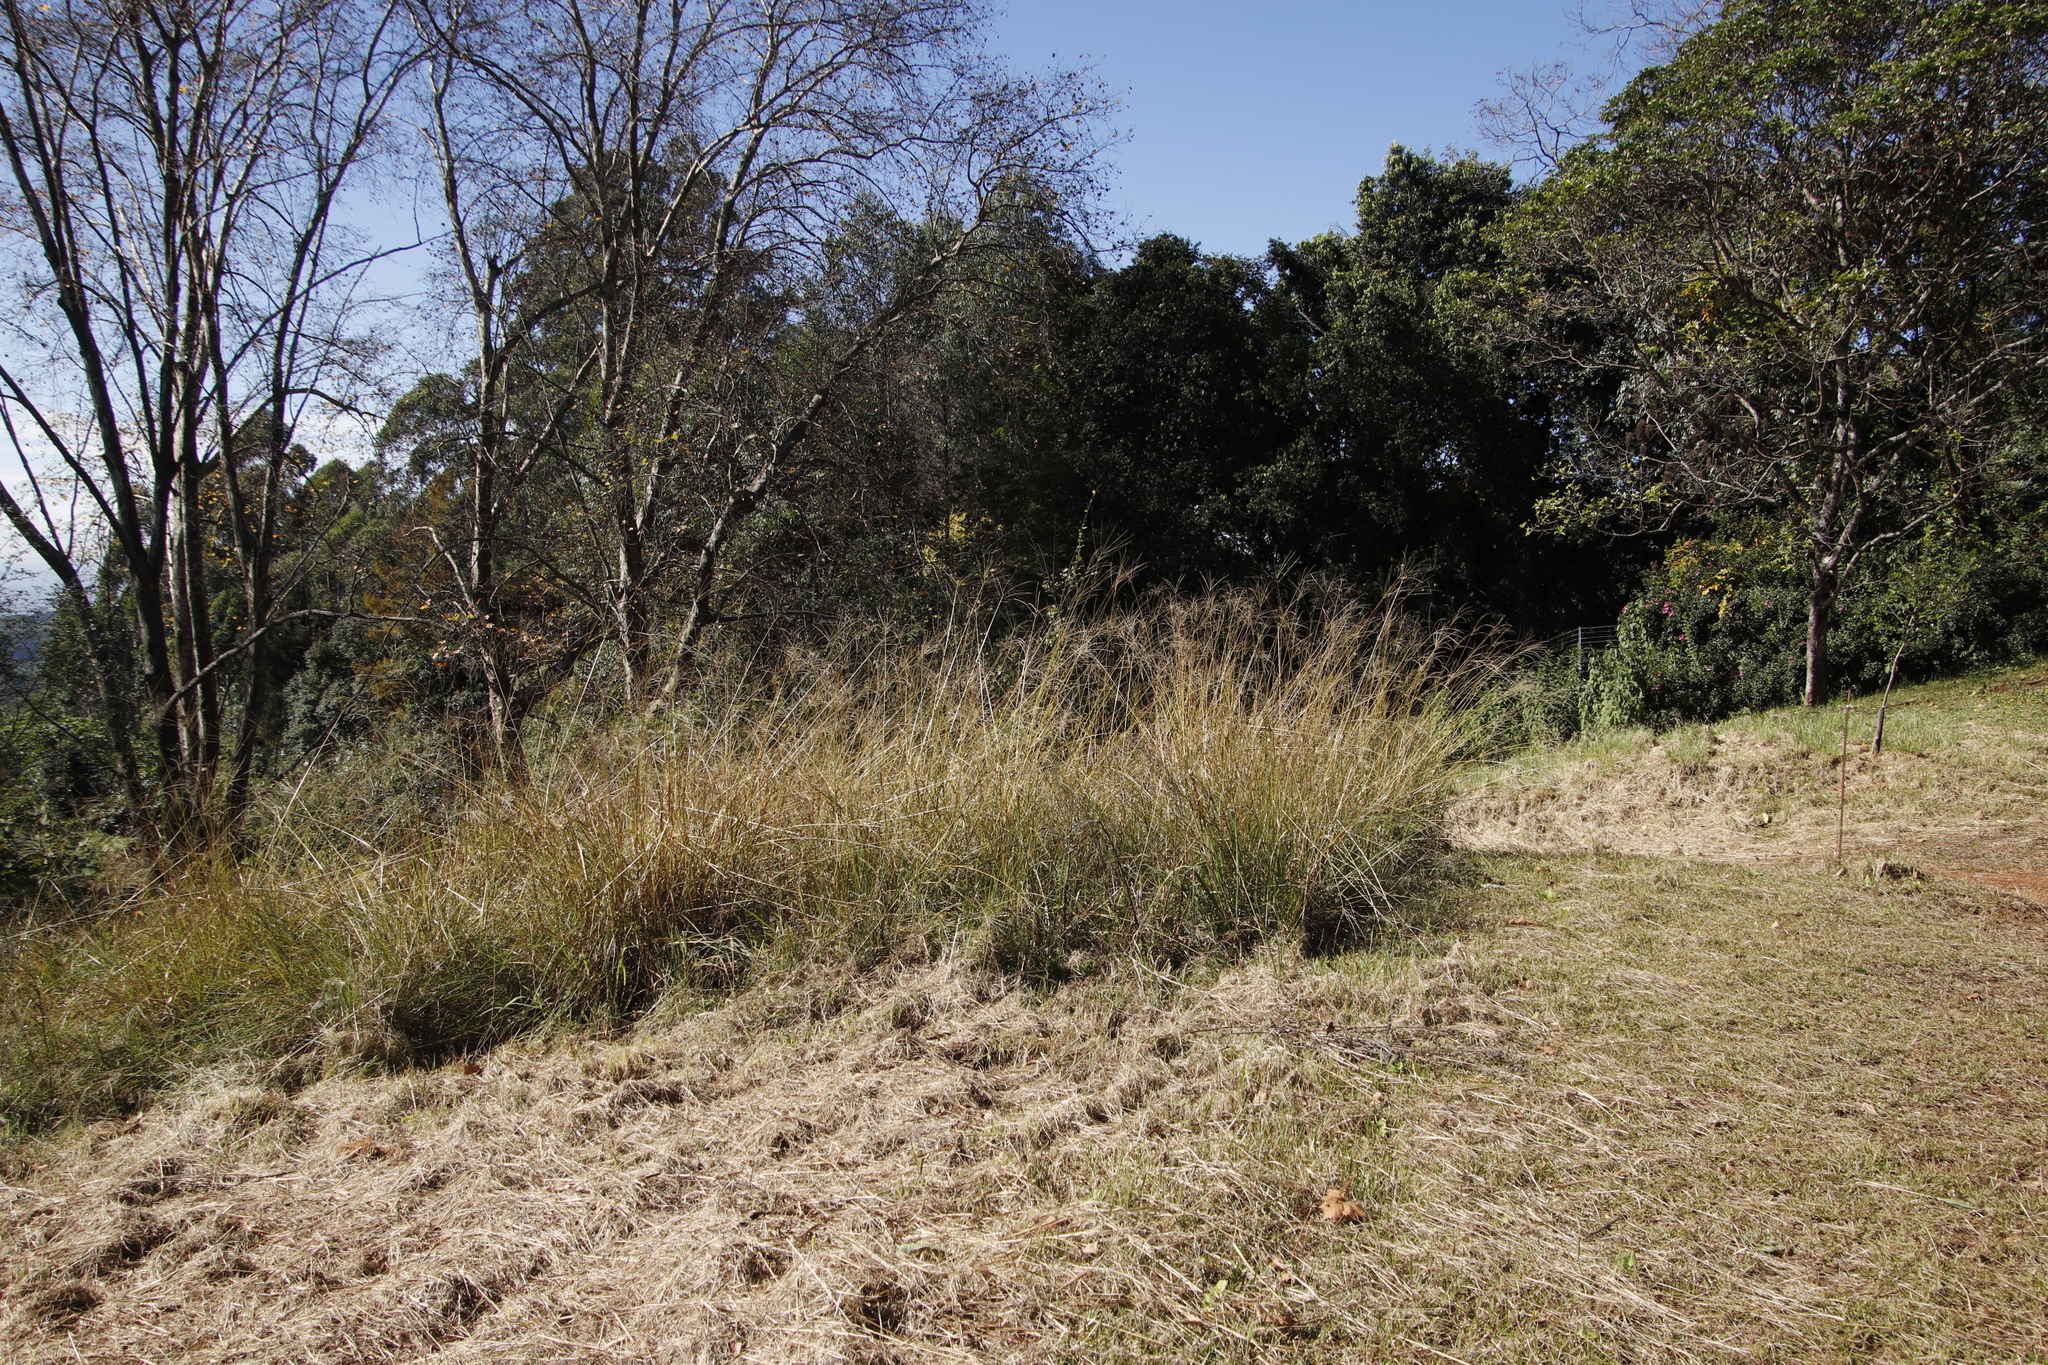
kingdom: Plantae
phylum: Tracheophyta
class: Liliopsida
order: Poales
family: Poaceae
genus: Digitaria
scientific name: Digitaria eriantha
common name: Digitgrass
